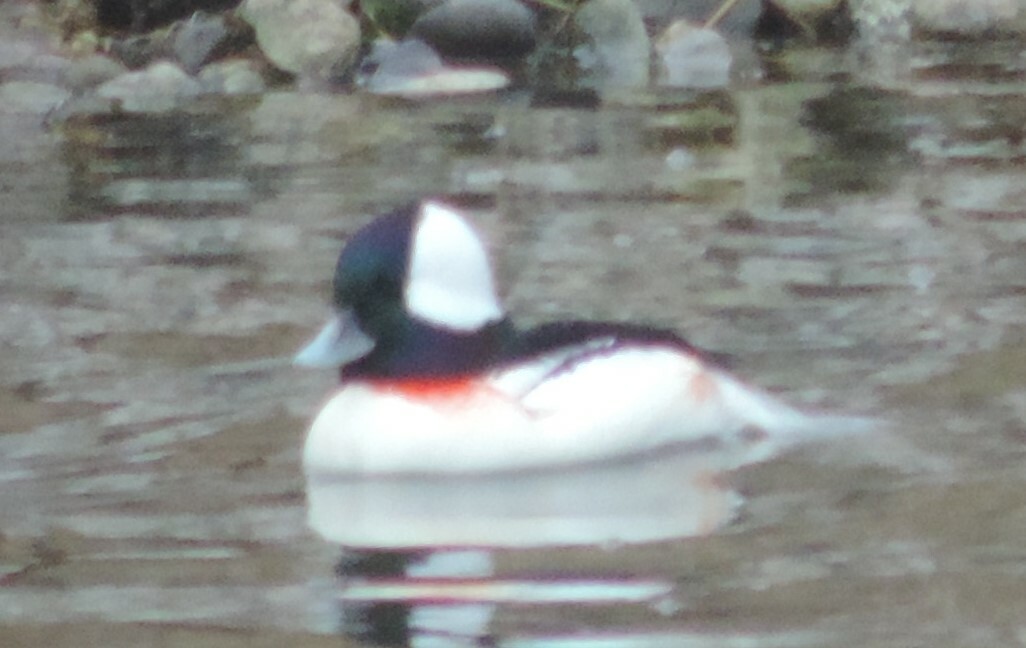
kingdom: Animalia
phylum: Chordata
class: Aves
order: Anseriformes
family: Anatidae
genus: Bucephala
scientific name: Bucephala albeola
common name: Bufflehead
